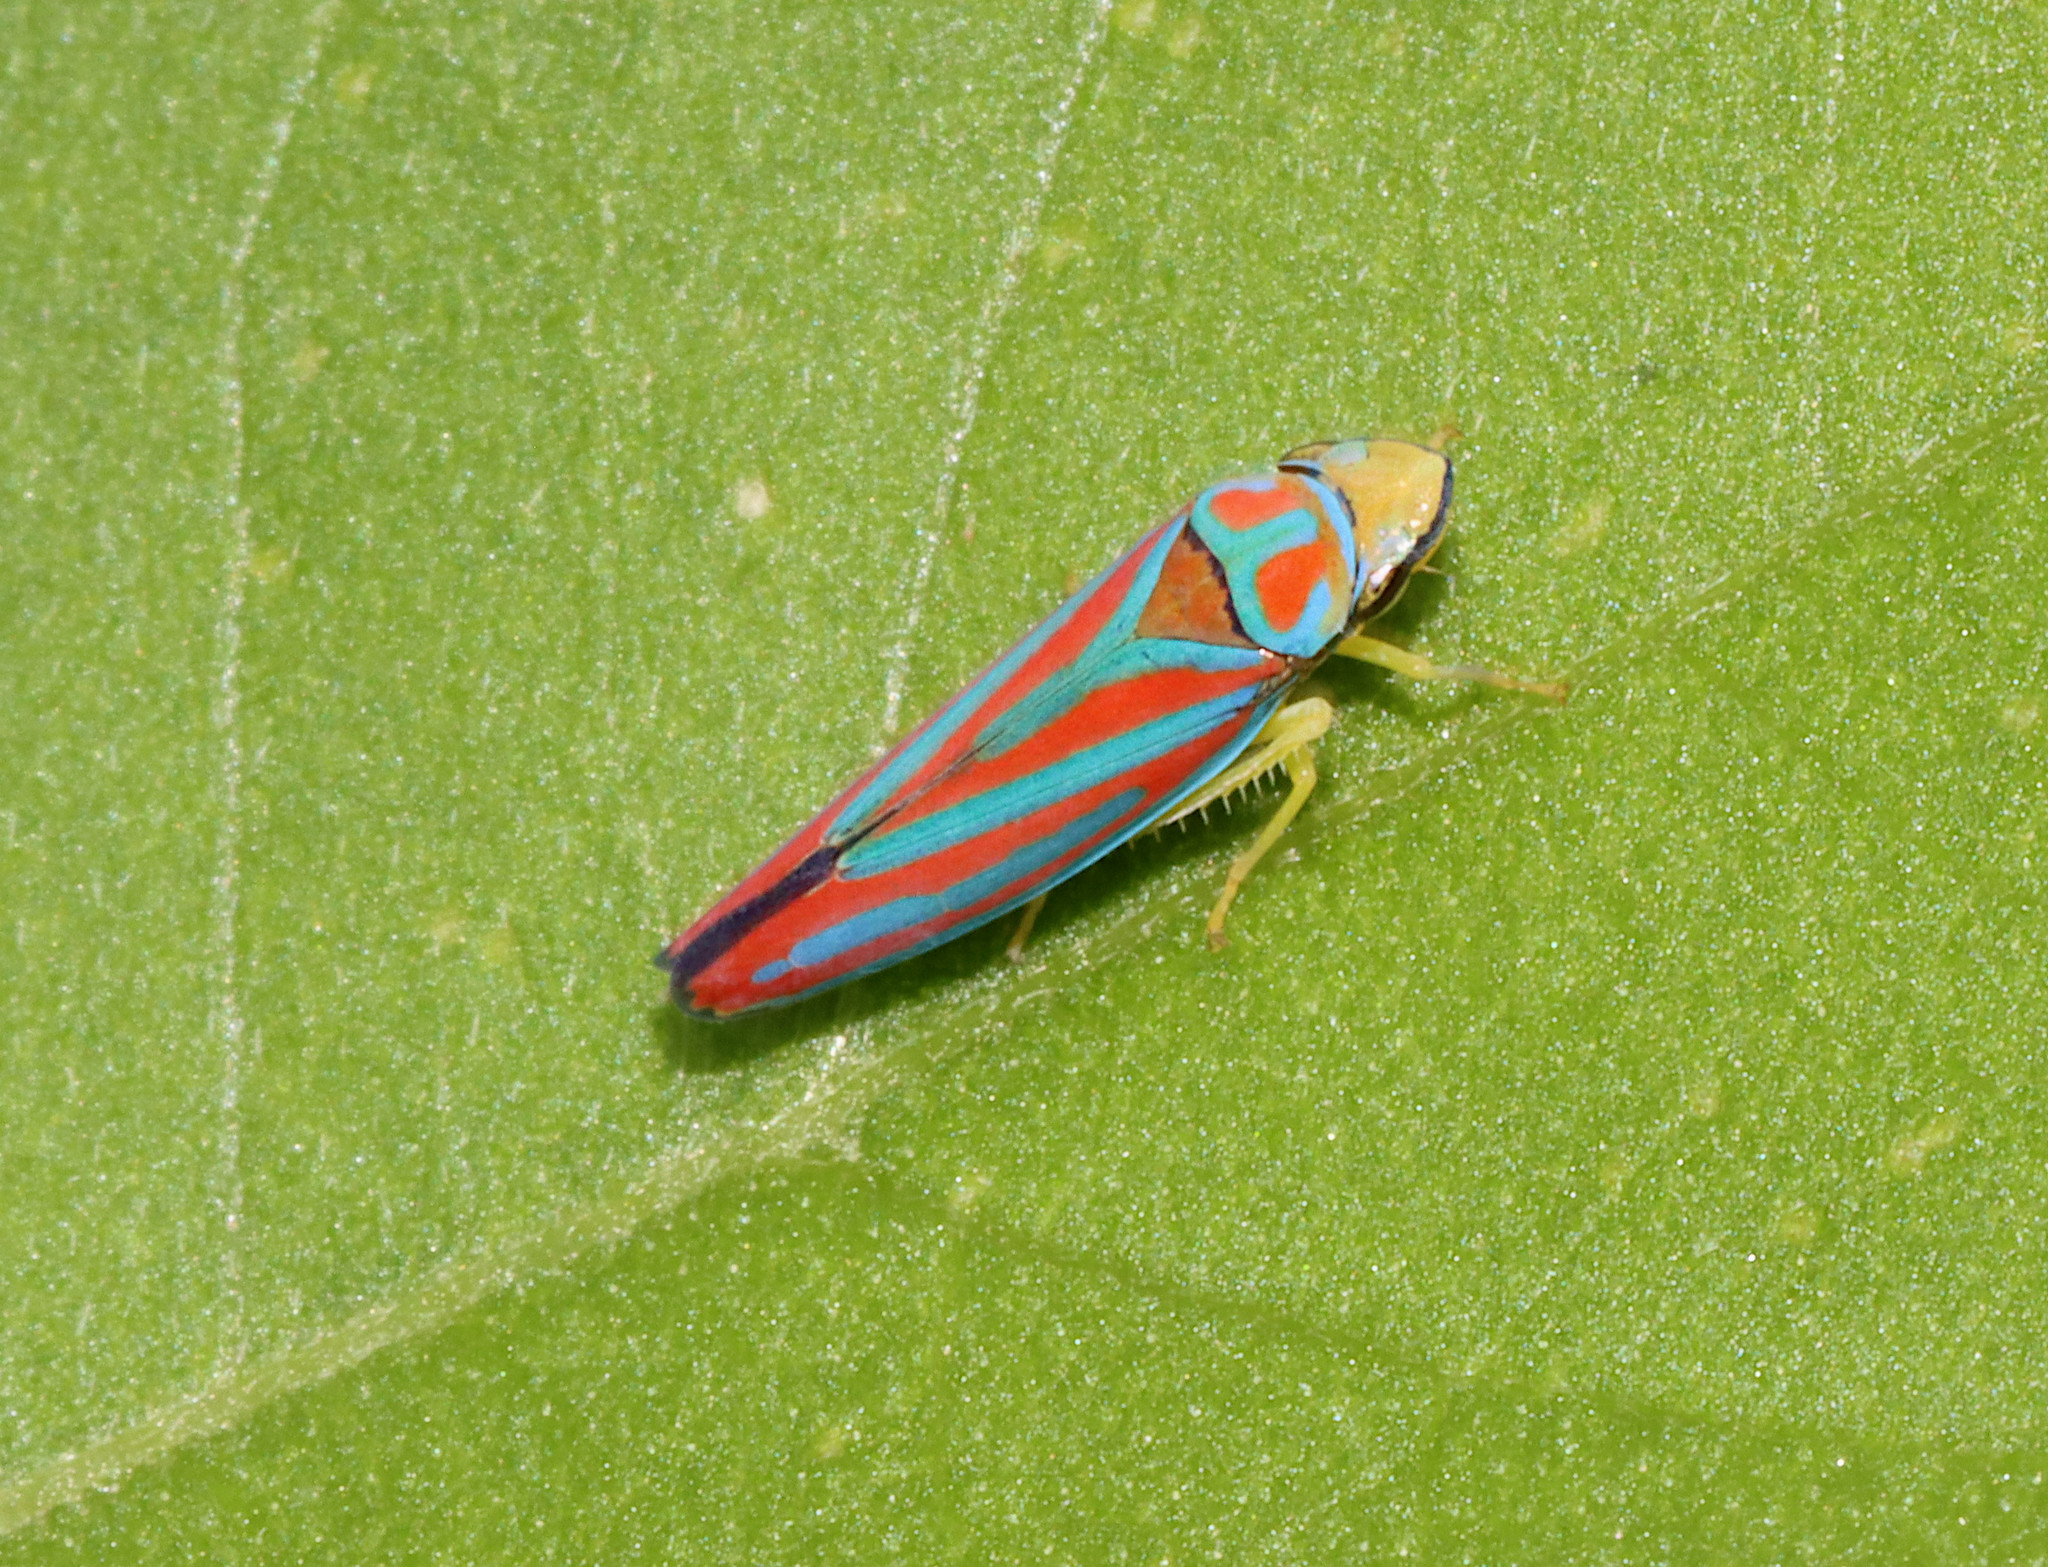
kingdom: Animalia
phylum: Arthropoda
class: Insecta
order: Hemiptera
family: Cicadellidae
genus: Graphocephala
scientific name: Graphocephala coccinea
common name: Candy-striped leafhopper
